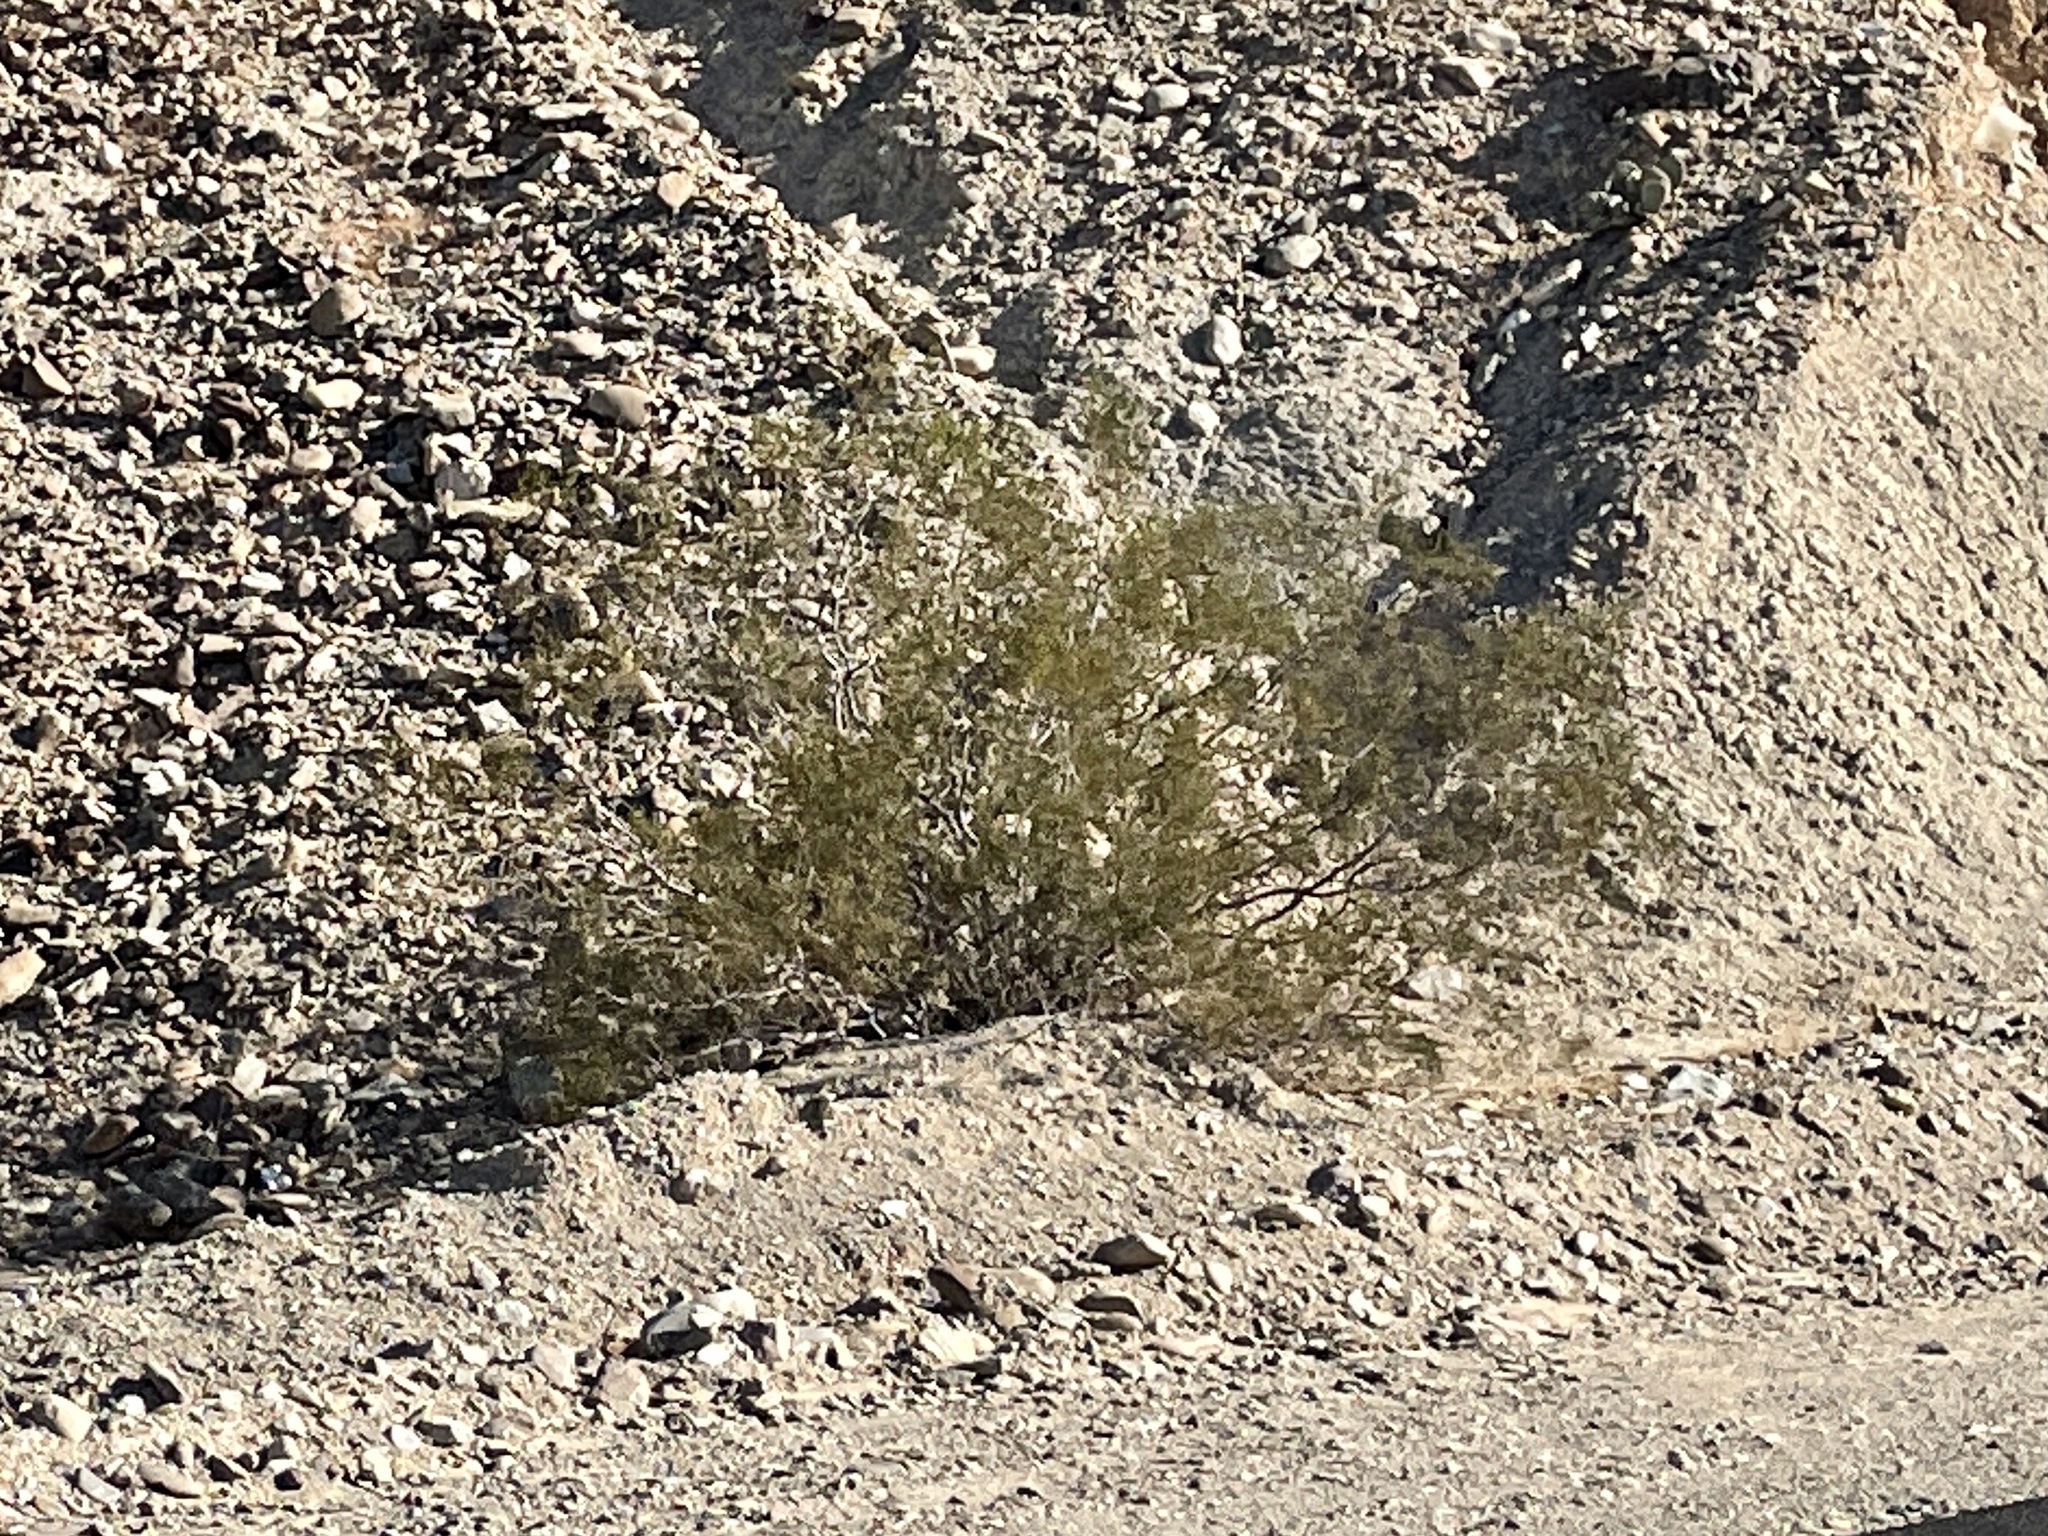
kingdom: Plantae
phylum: Tracheophyta
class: Magnoliopsida
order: Zygophyllales
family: Zygophyllaceae
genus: Larrea
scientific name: Larrea tridentata
